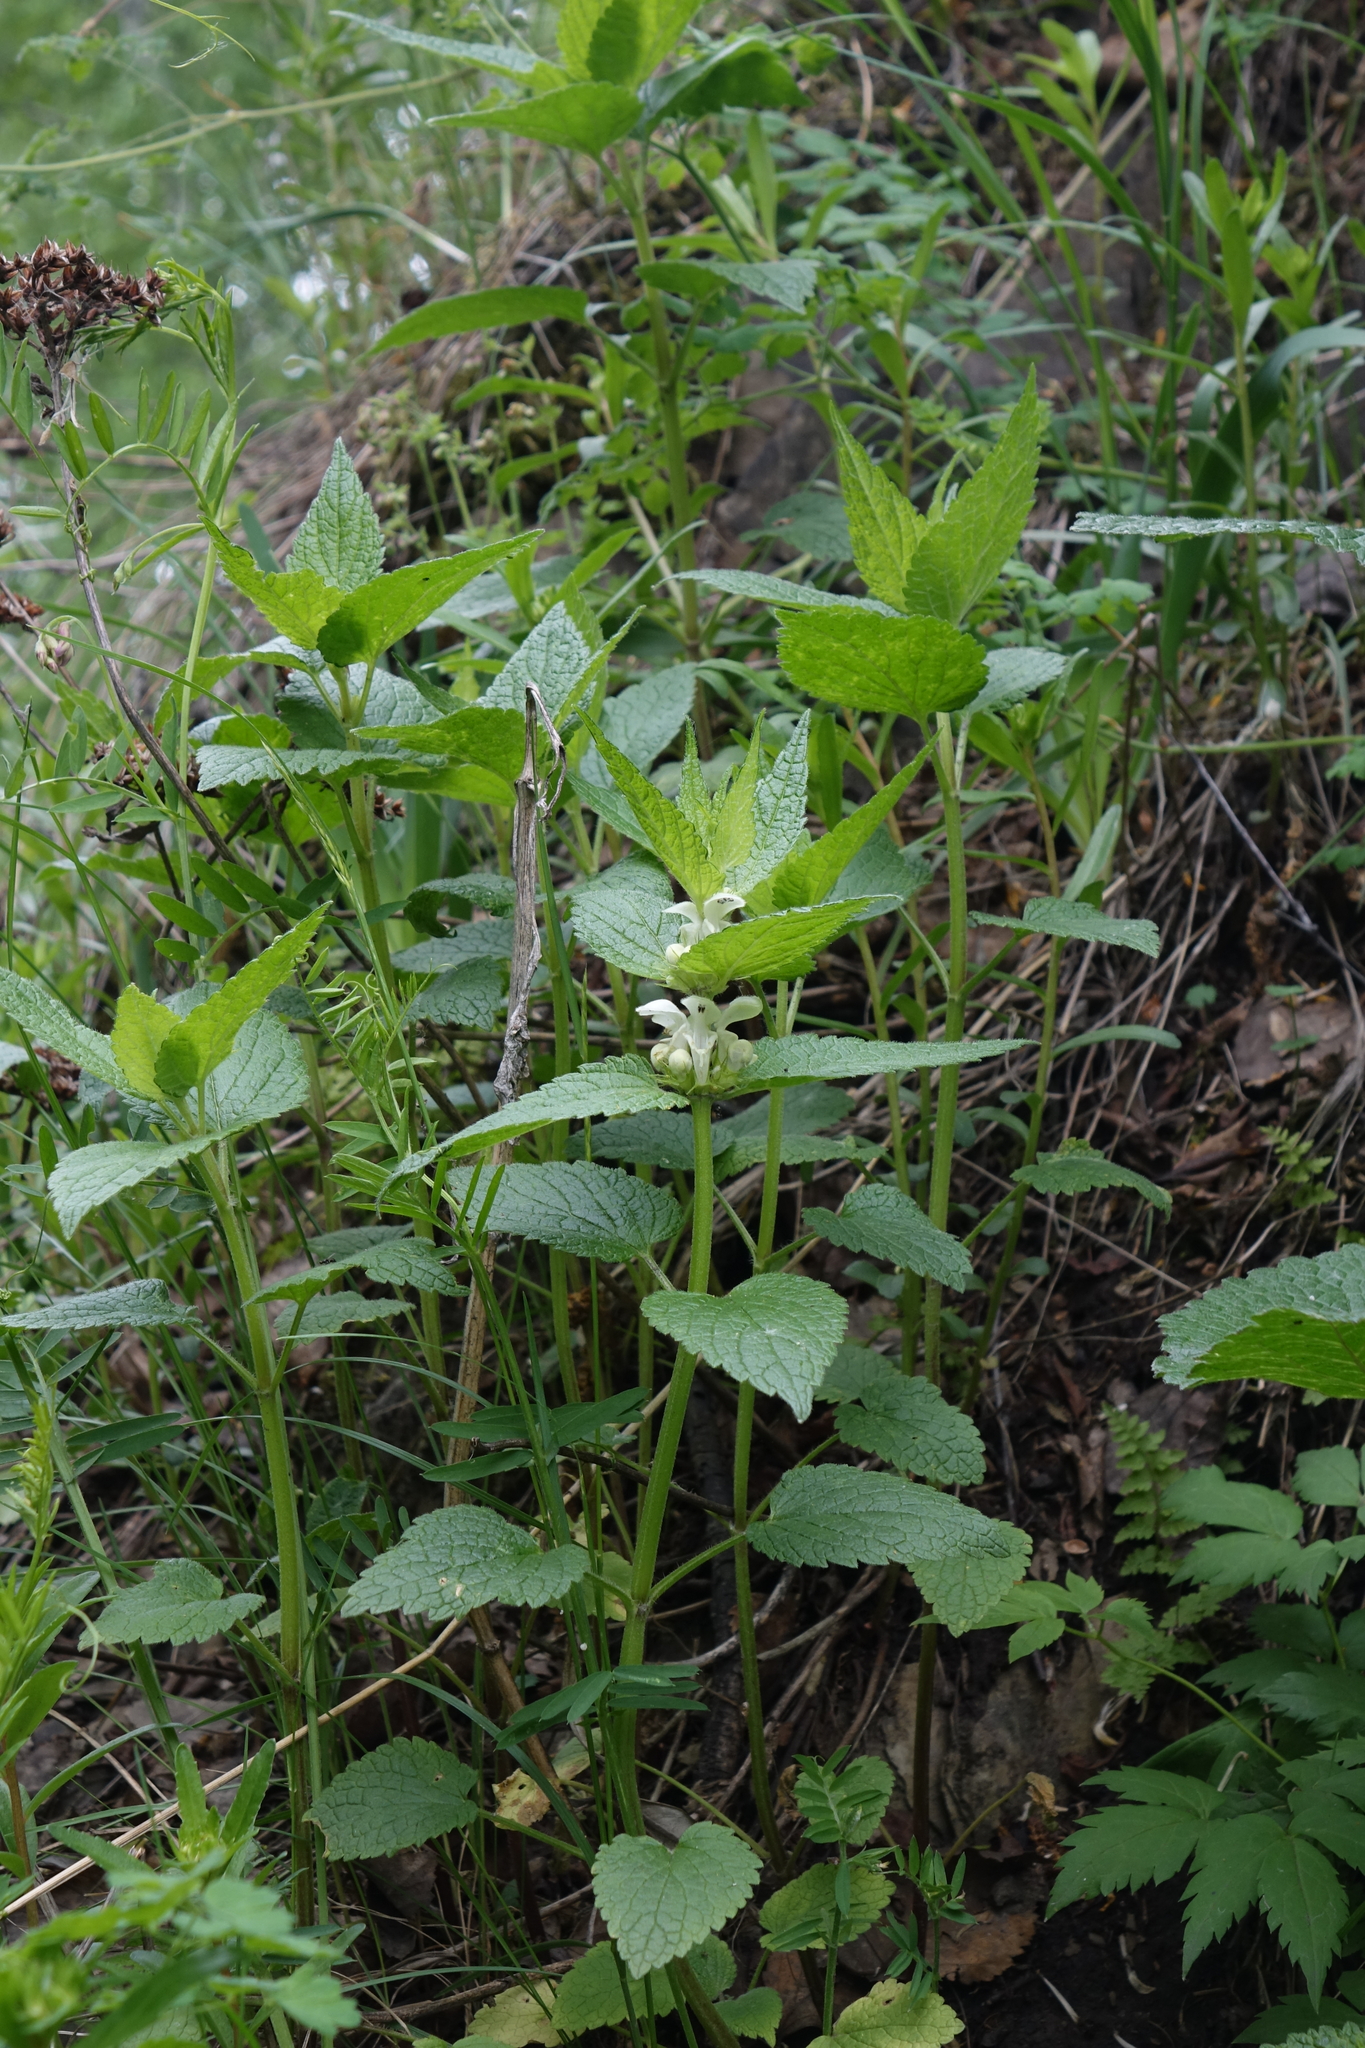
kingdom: Plantae
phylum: Tracheophyta
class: Magnoliopsida
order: Lamiales
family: Lamiaceae
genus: Lamium
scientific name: Lamium album
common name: White dead-nettle
